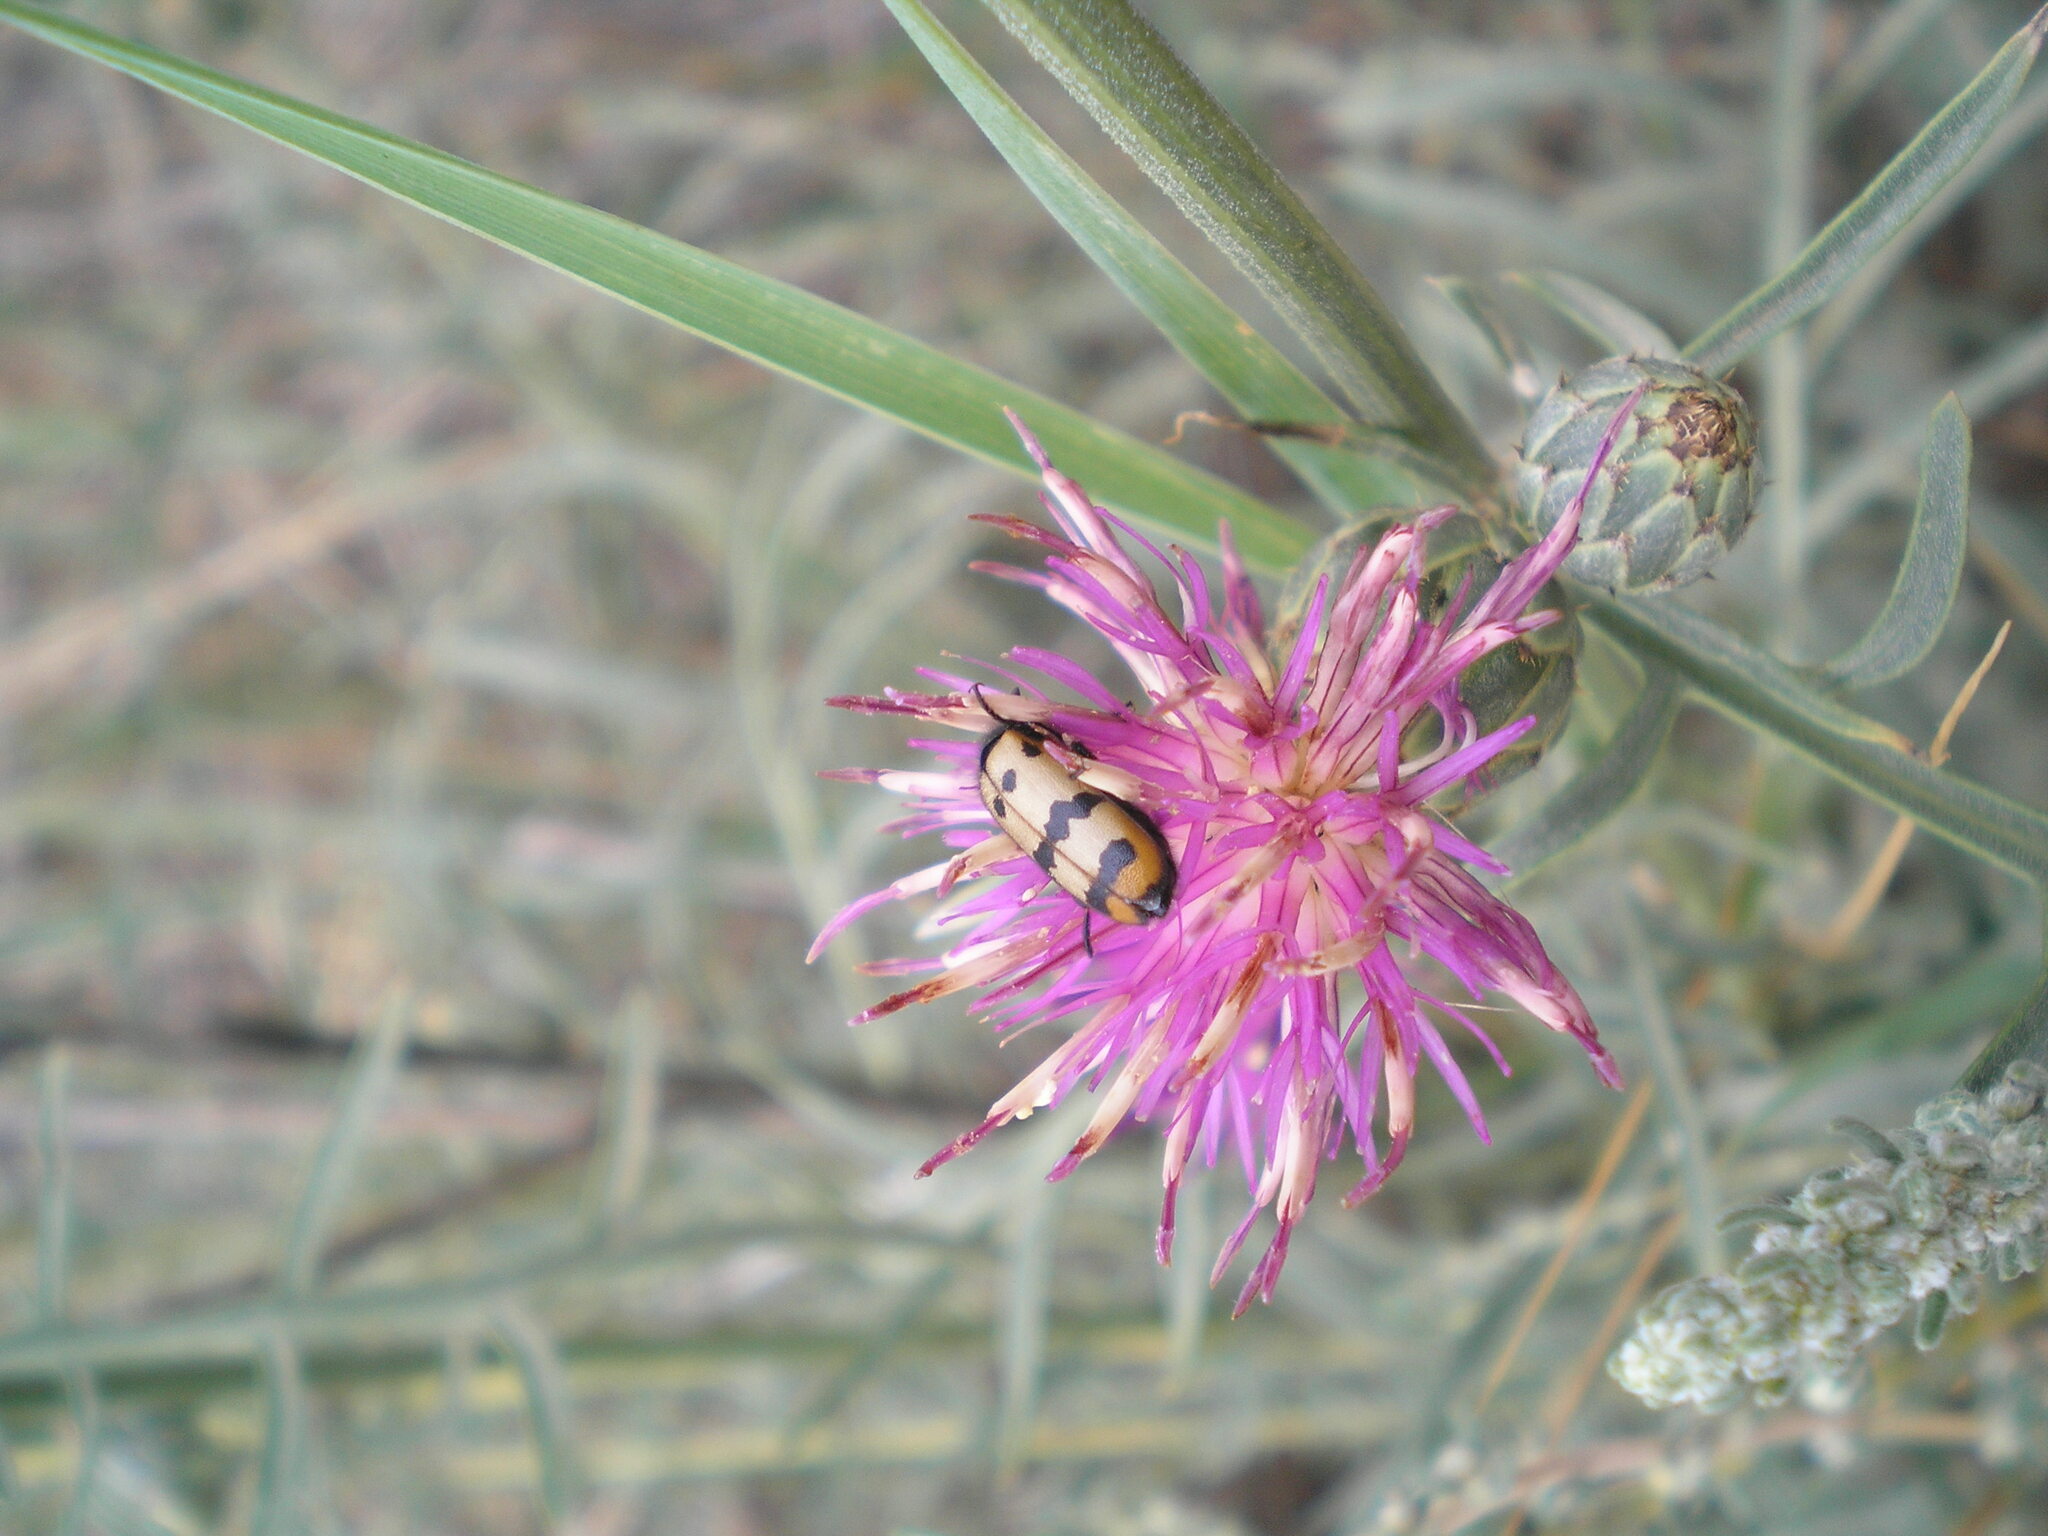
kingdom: Plantae
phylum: Tracheophyta
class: Magnoliopsida
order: Asterales
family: Asteraceae
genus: Centaurea
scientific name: Centaurea adpressa
